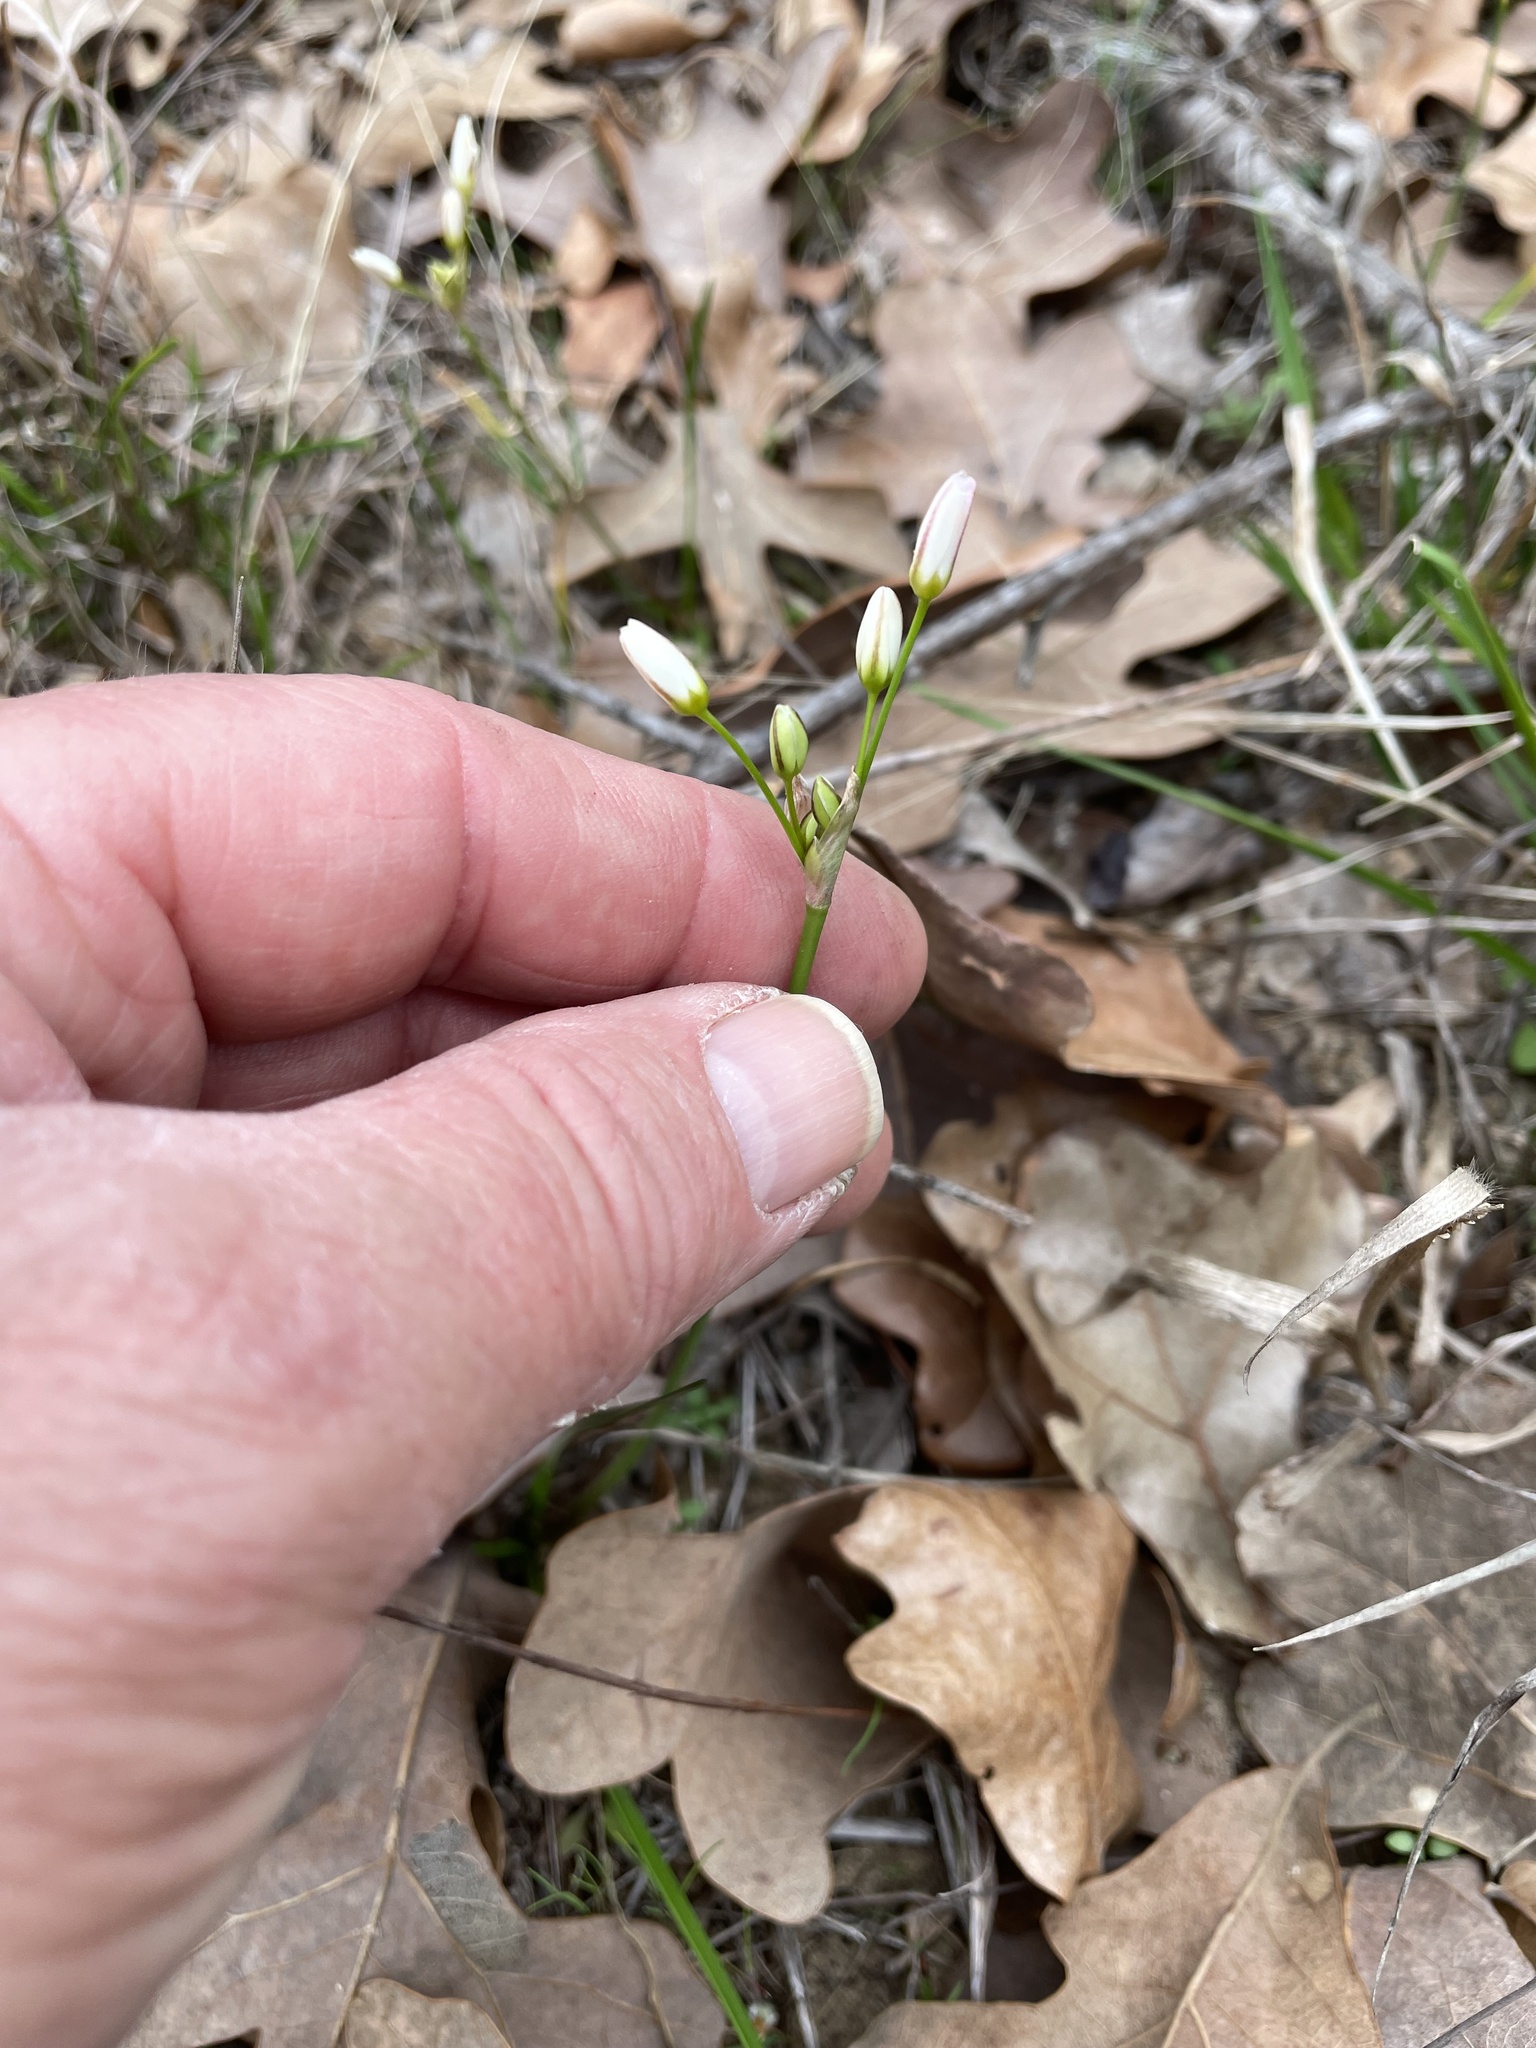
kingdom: Plantae
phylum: Tracheophyta
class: Liliopsida
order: Asparagales
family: Amaryllidaceae
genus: Nothoscordum
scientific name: Nothoscordum bivalve
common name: Crow-poison
